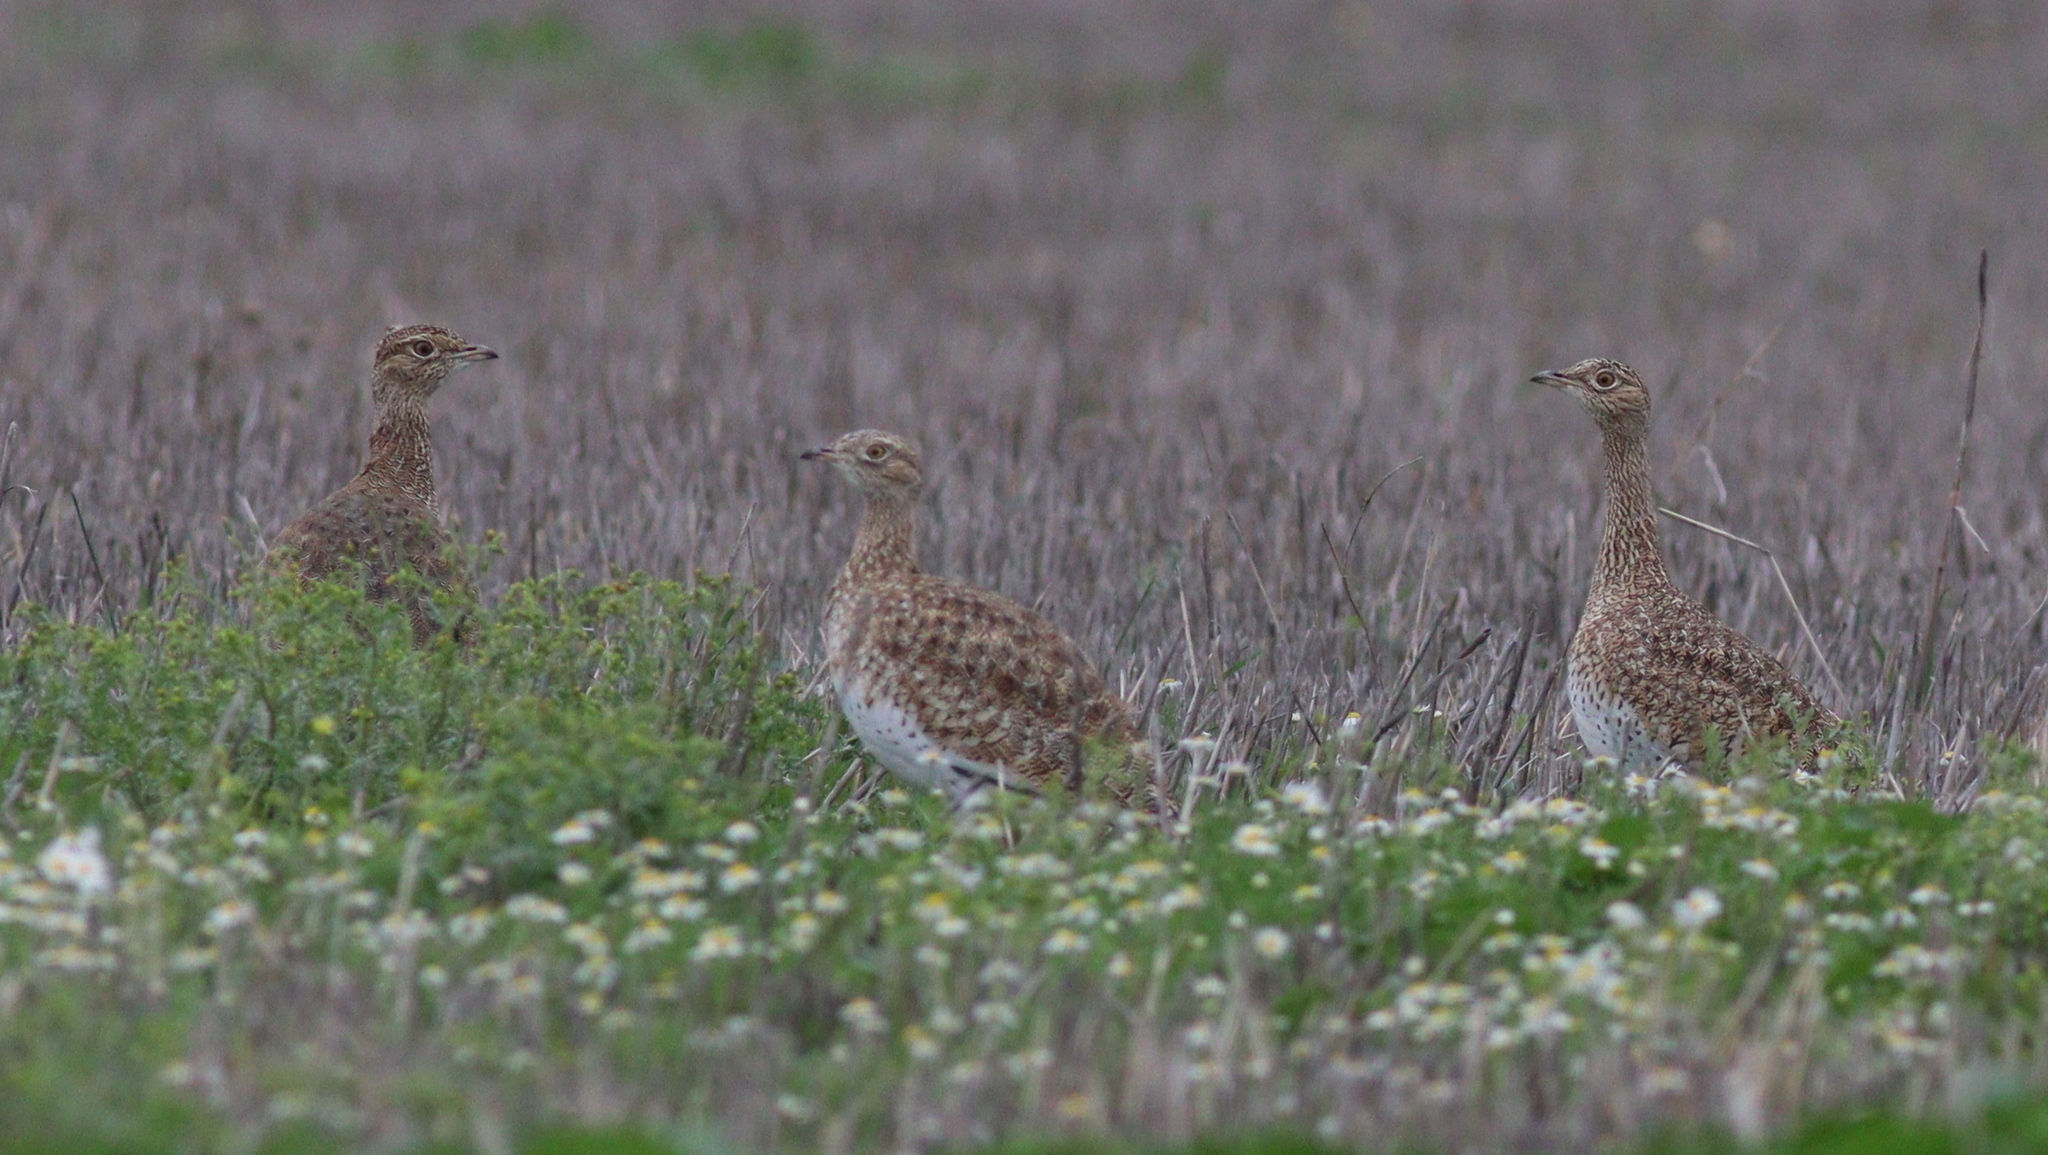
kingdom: Animalia
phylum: Chordata
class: Aves
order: Otidiformes
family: Otididae
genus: Tetrax
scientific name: Tetrax tetrax
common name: Little bustard
